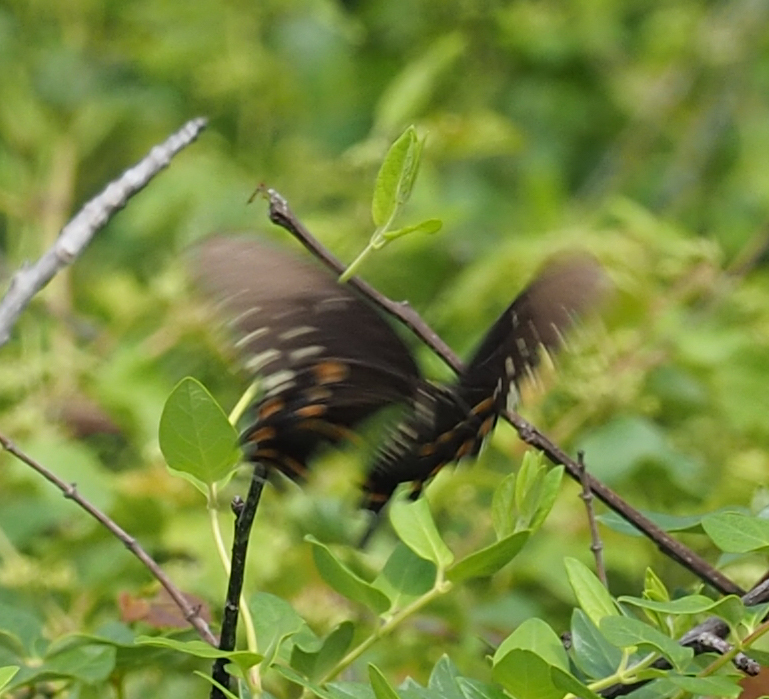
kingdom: Animalia
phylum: Arthropoda
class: Insecta
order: Lepidoptera
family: Papilionidae
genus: Papilio
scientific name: Papilio troilus
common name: Spicebush swallowtail
